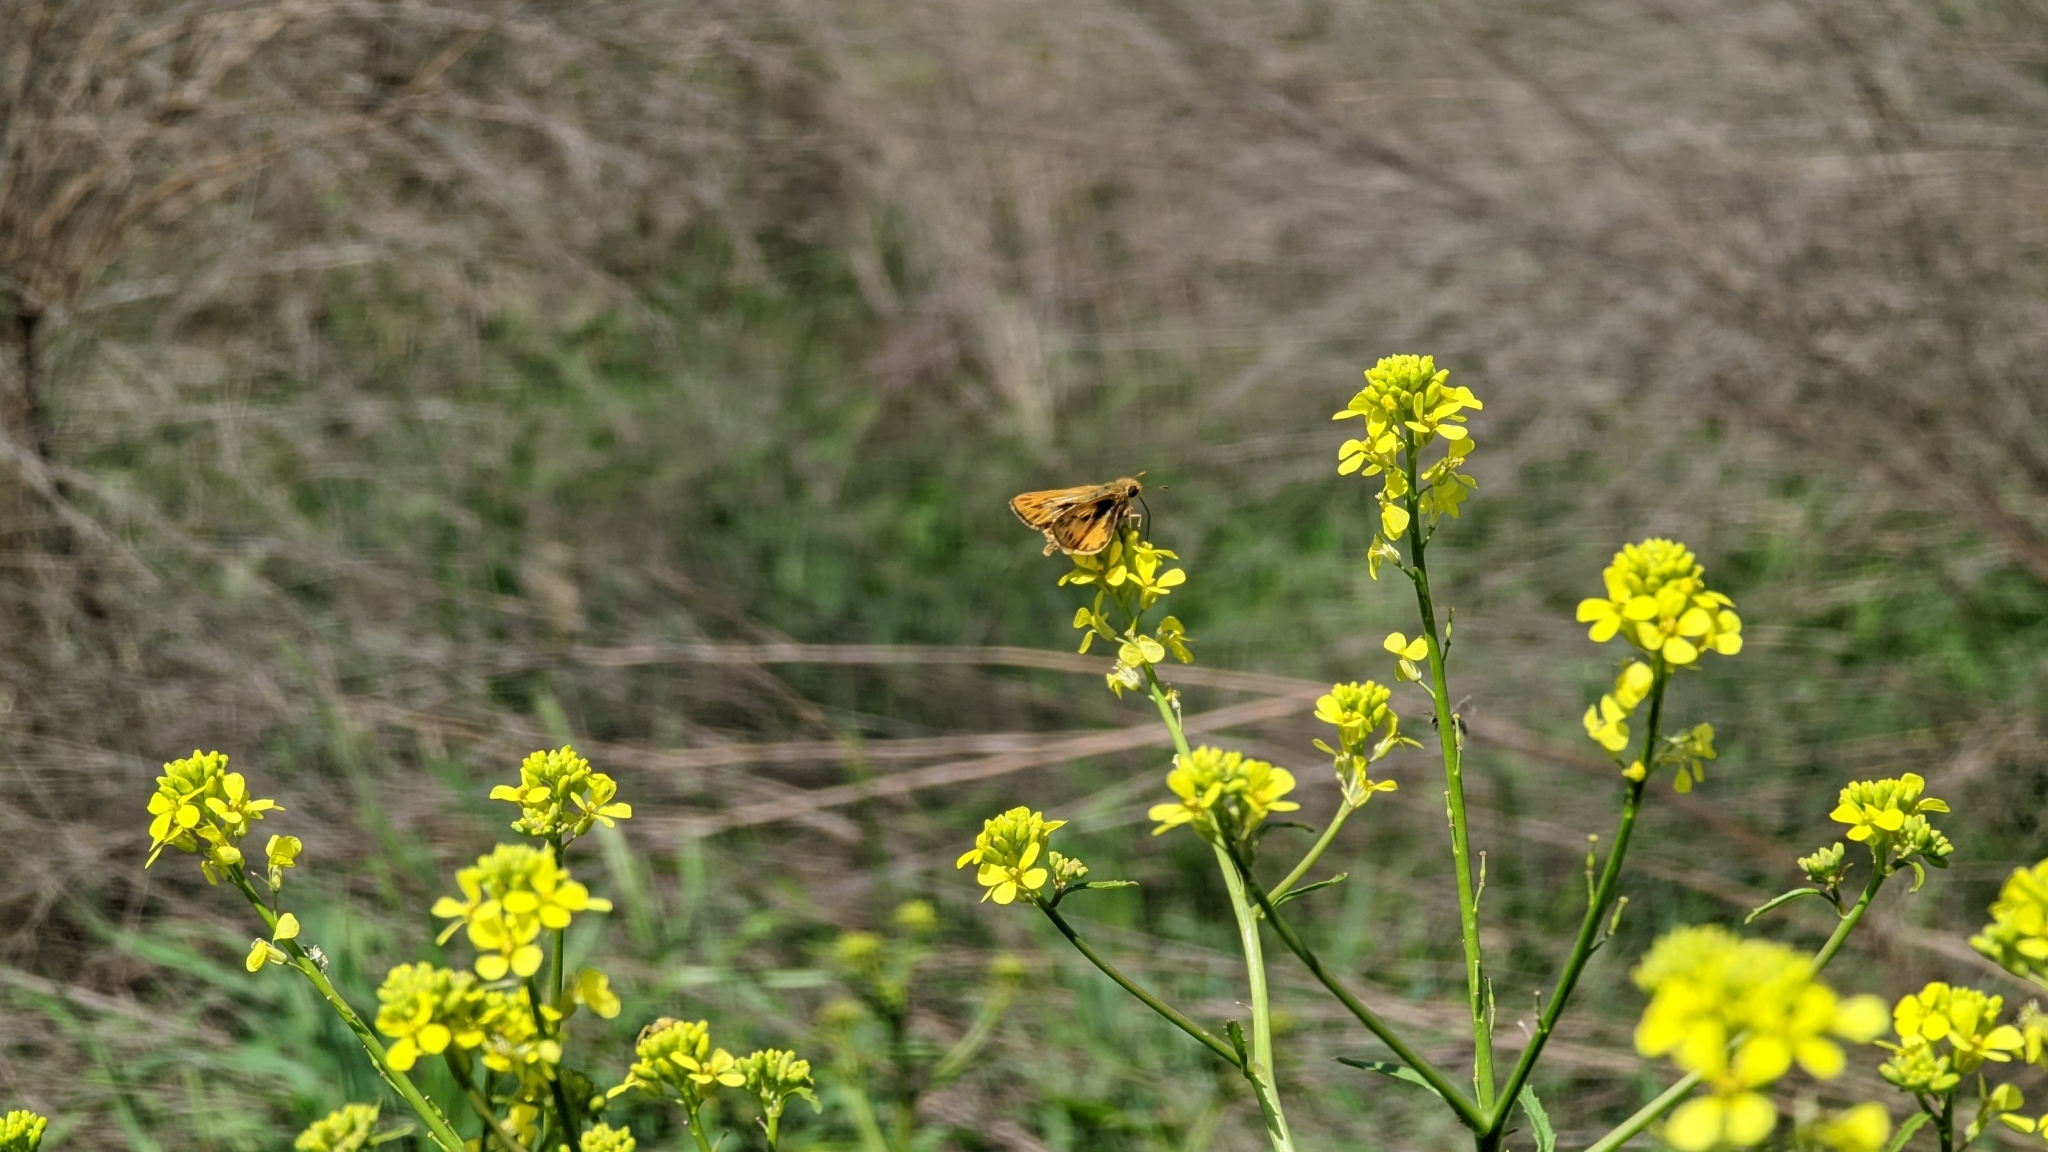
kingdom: Animalia
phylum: Arthropoda
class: Insecta
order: Lepidoptera
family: Hesperiidae
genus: Hylephila
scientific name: Hylephila phyleus
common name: Fiery skipper
